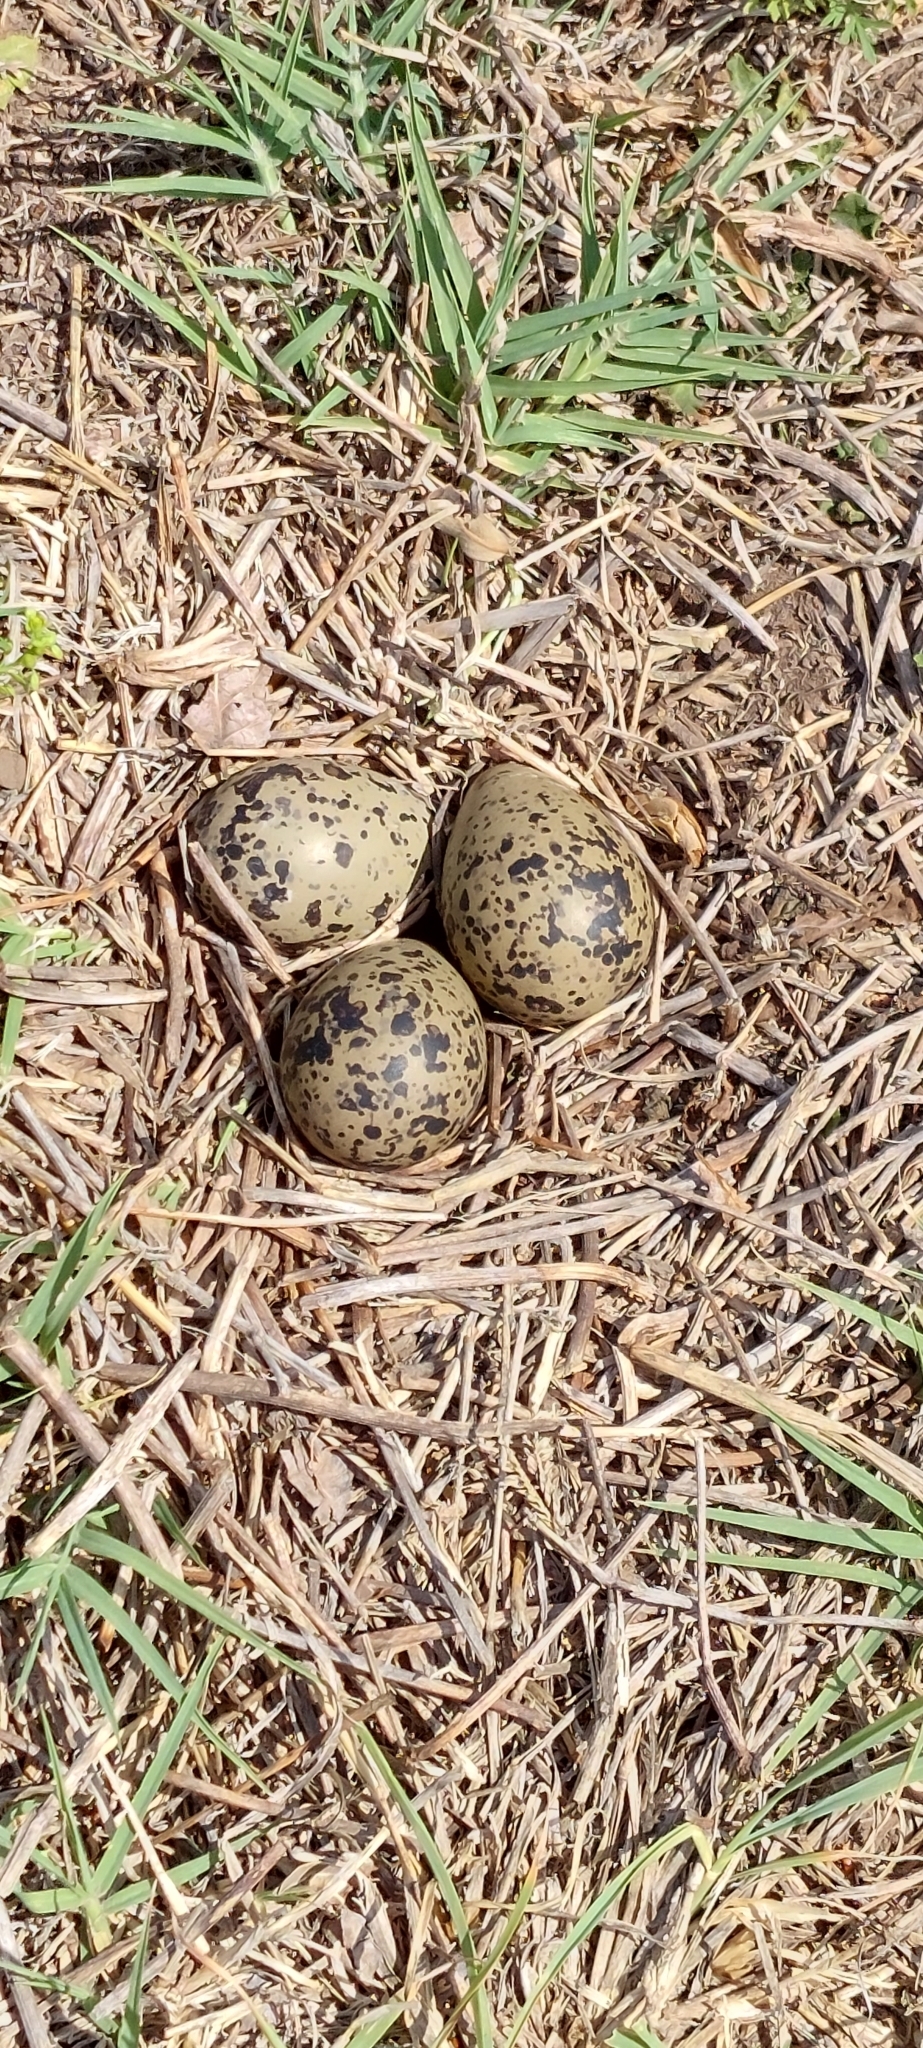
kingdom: Animalia
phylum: Chordata
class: Aves
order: Charadriiformes
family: Charadriidae
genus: Vanellus
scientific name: Vanellus chilensis
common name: Southern lapwing
